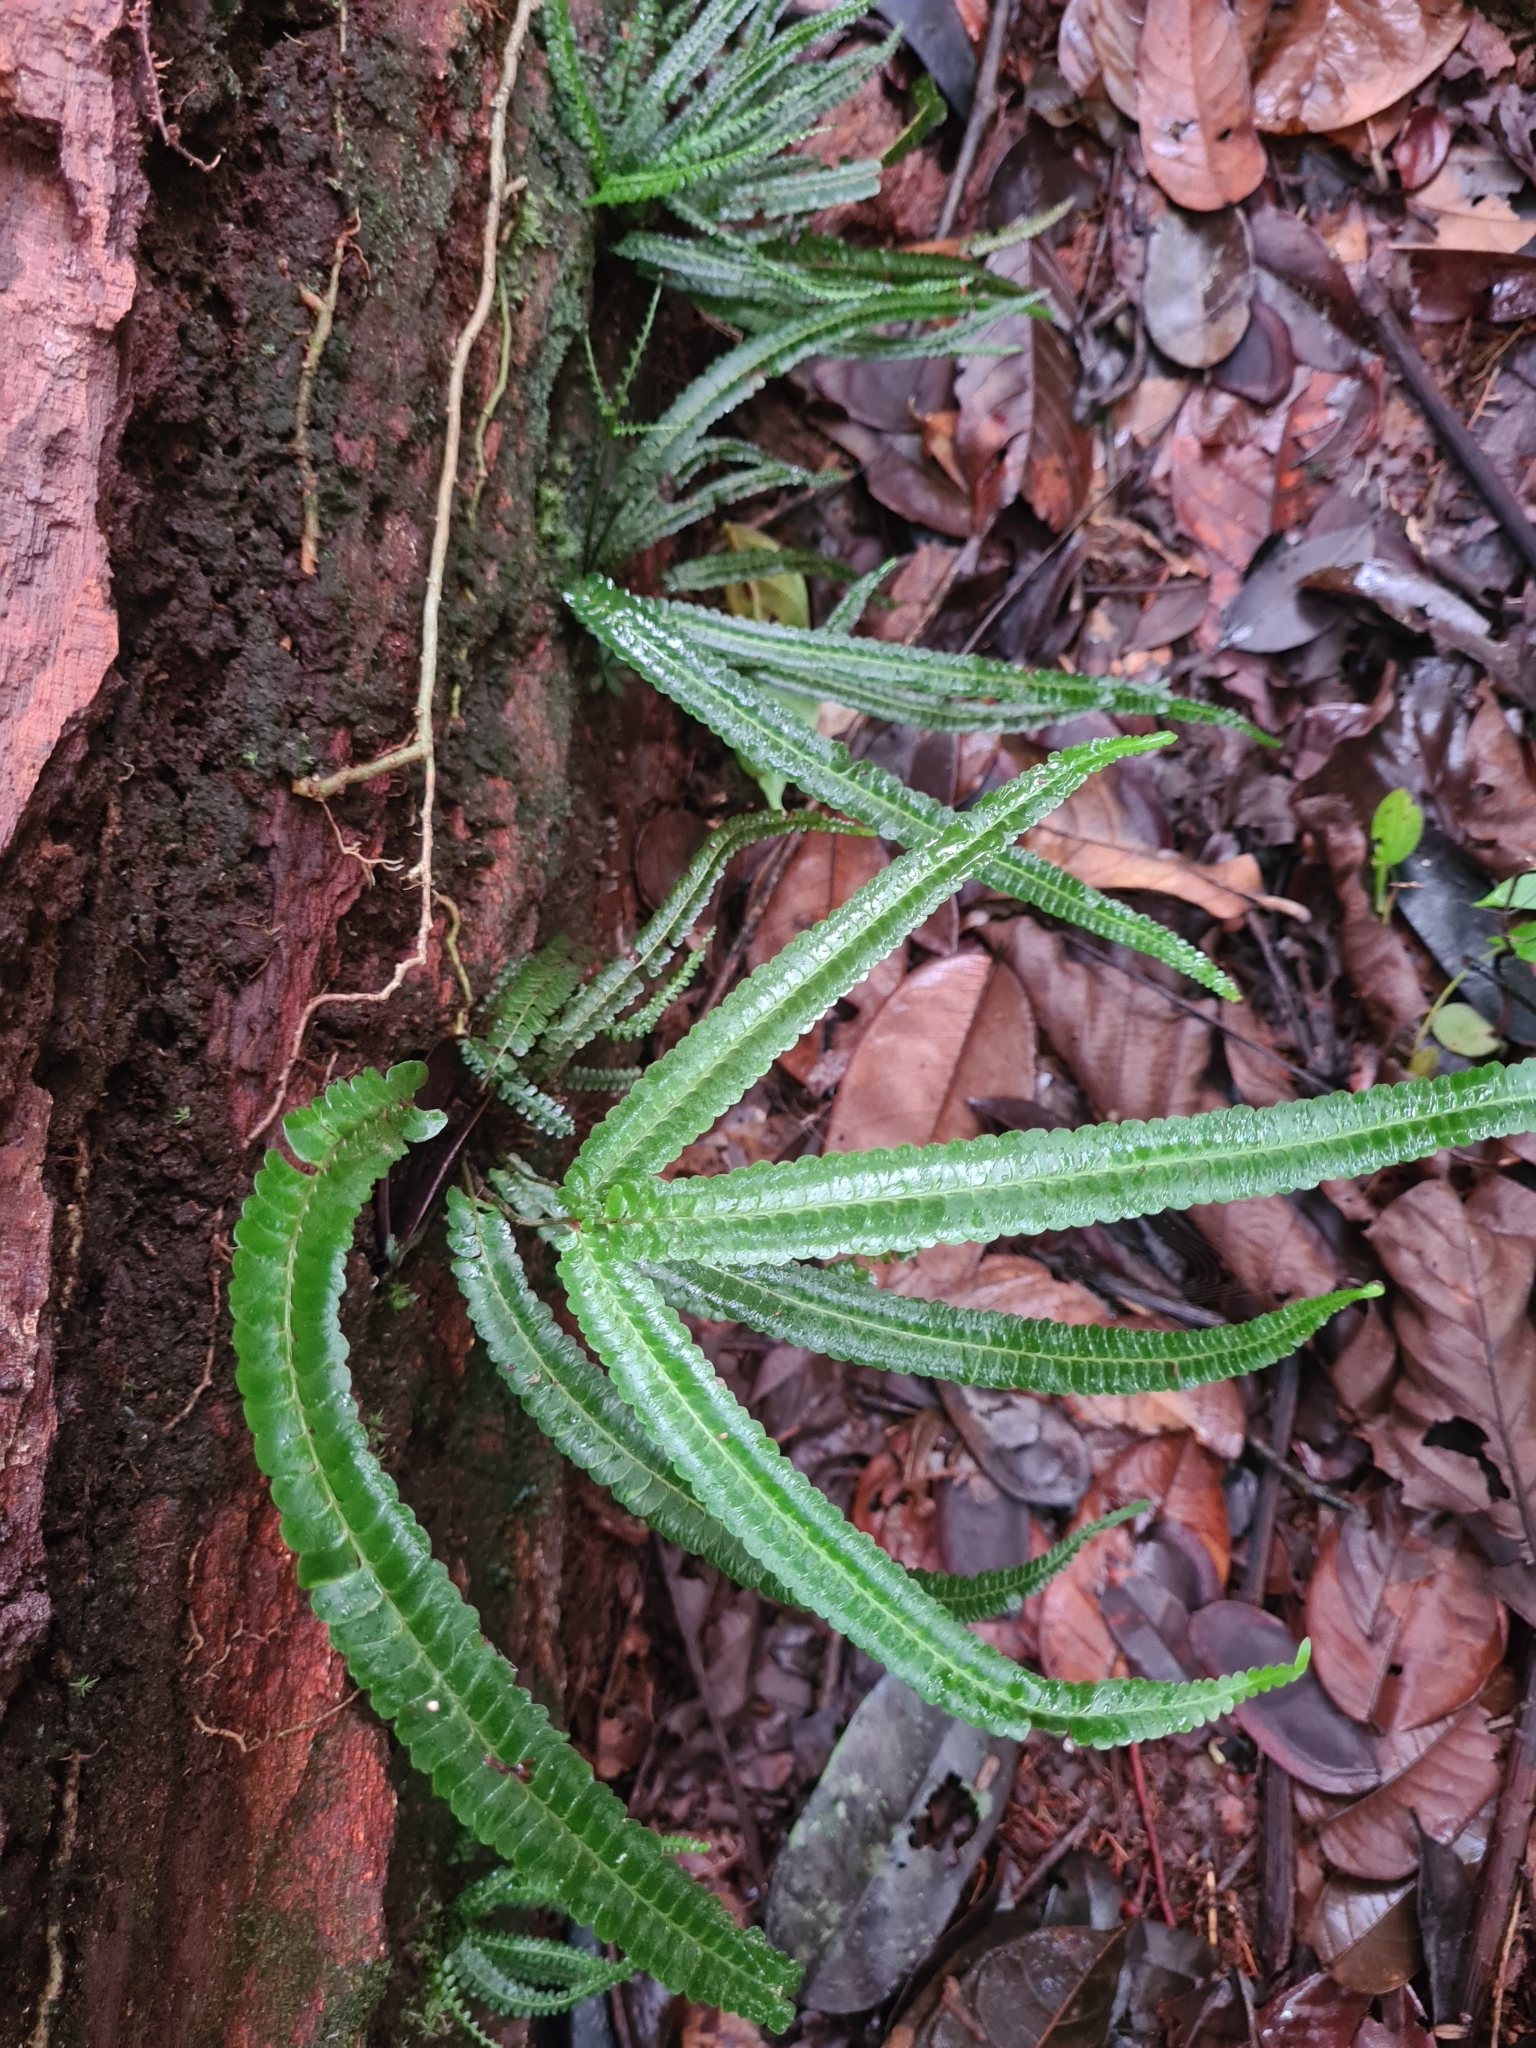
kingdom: Plantae
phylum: Tracheophyta
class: Polypodiopsida
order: Polypodiales
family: Lindsaeaceae
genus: Lindsaea
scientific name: Lindsaea guianensis
